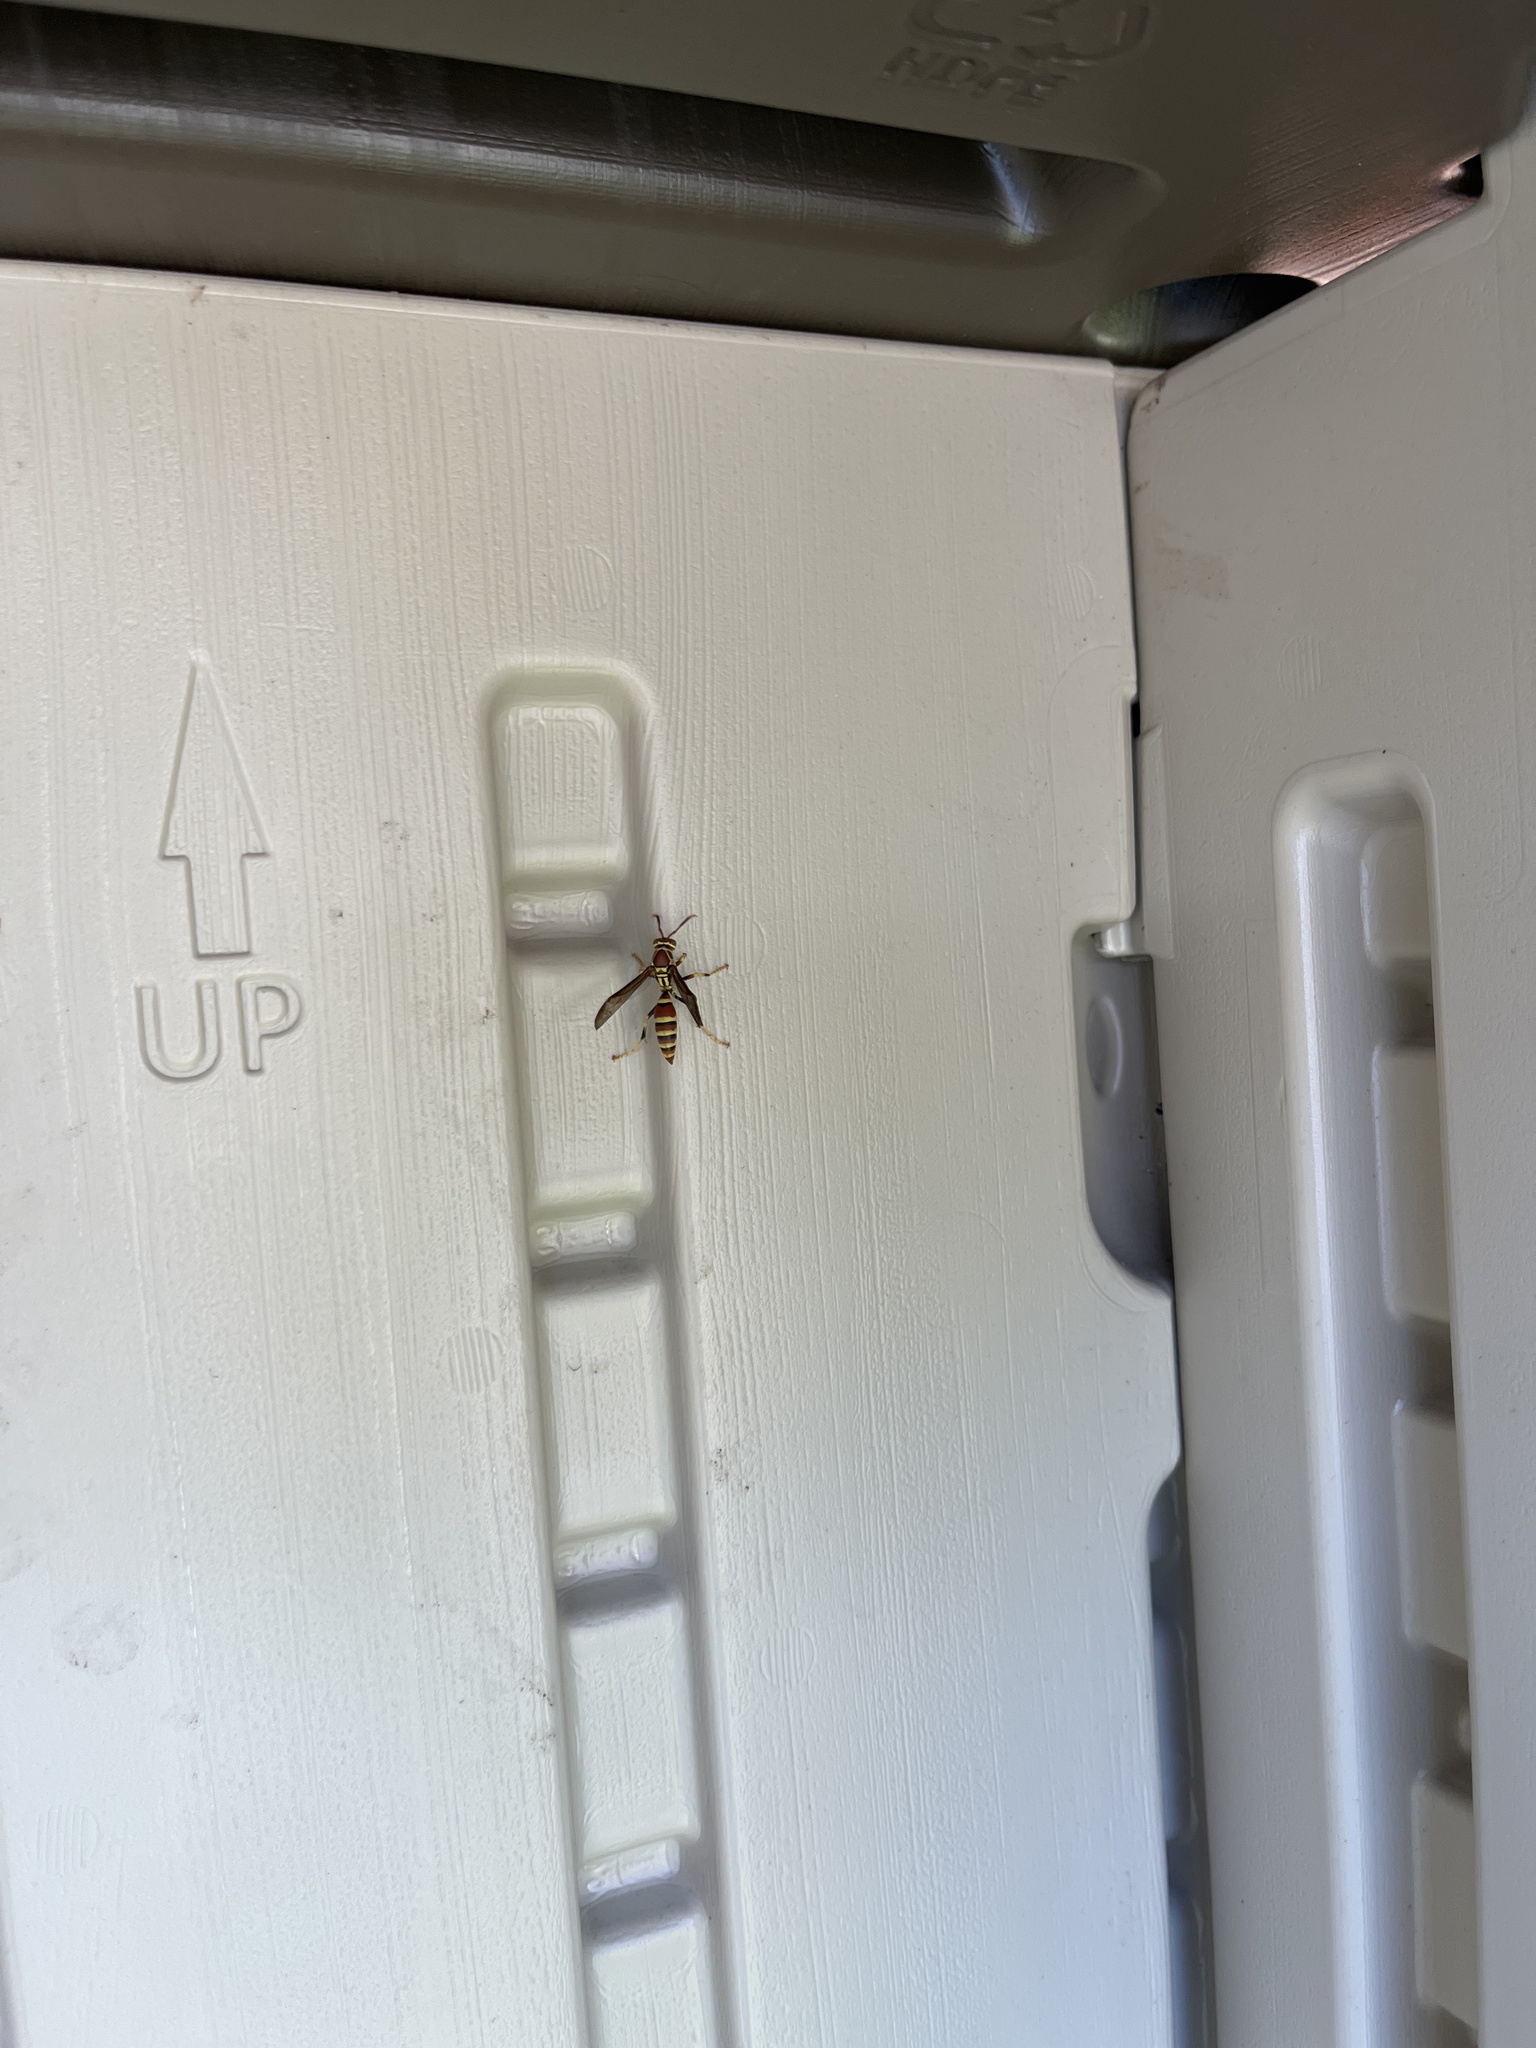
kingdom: Animalia
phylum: Arthropoda
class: Insecta
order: Hymenoptera
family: Eumenidae
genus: Polistes
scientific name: Polistes exclamans
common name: Paper wasp
